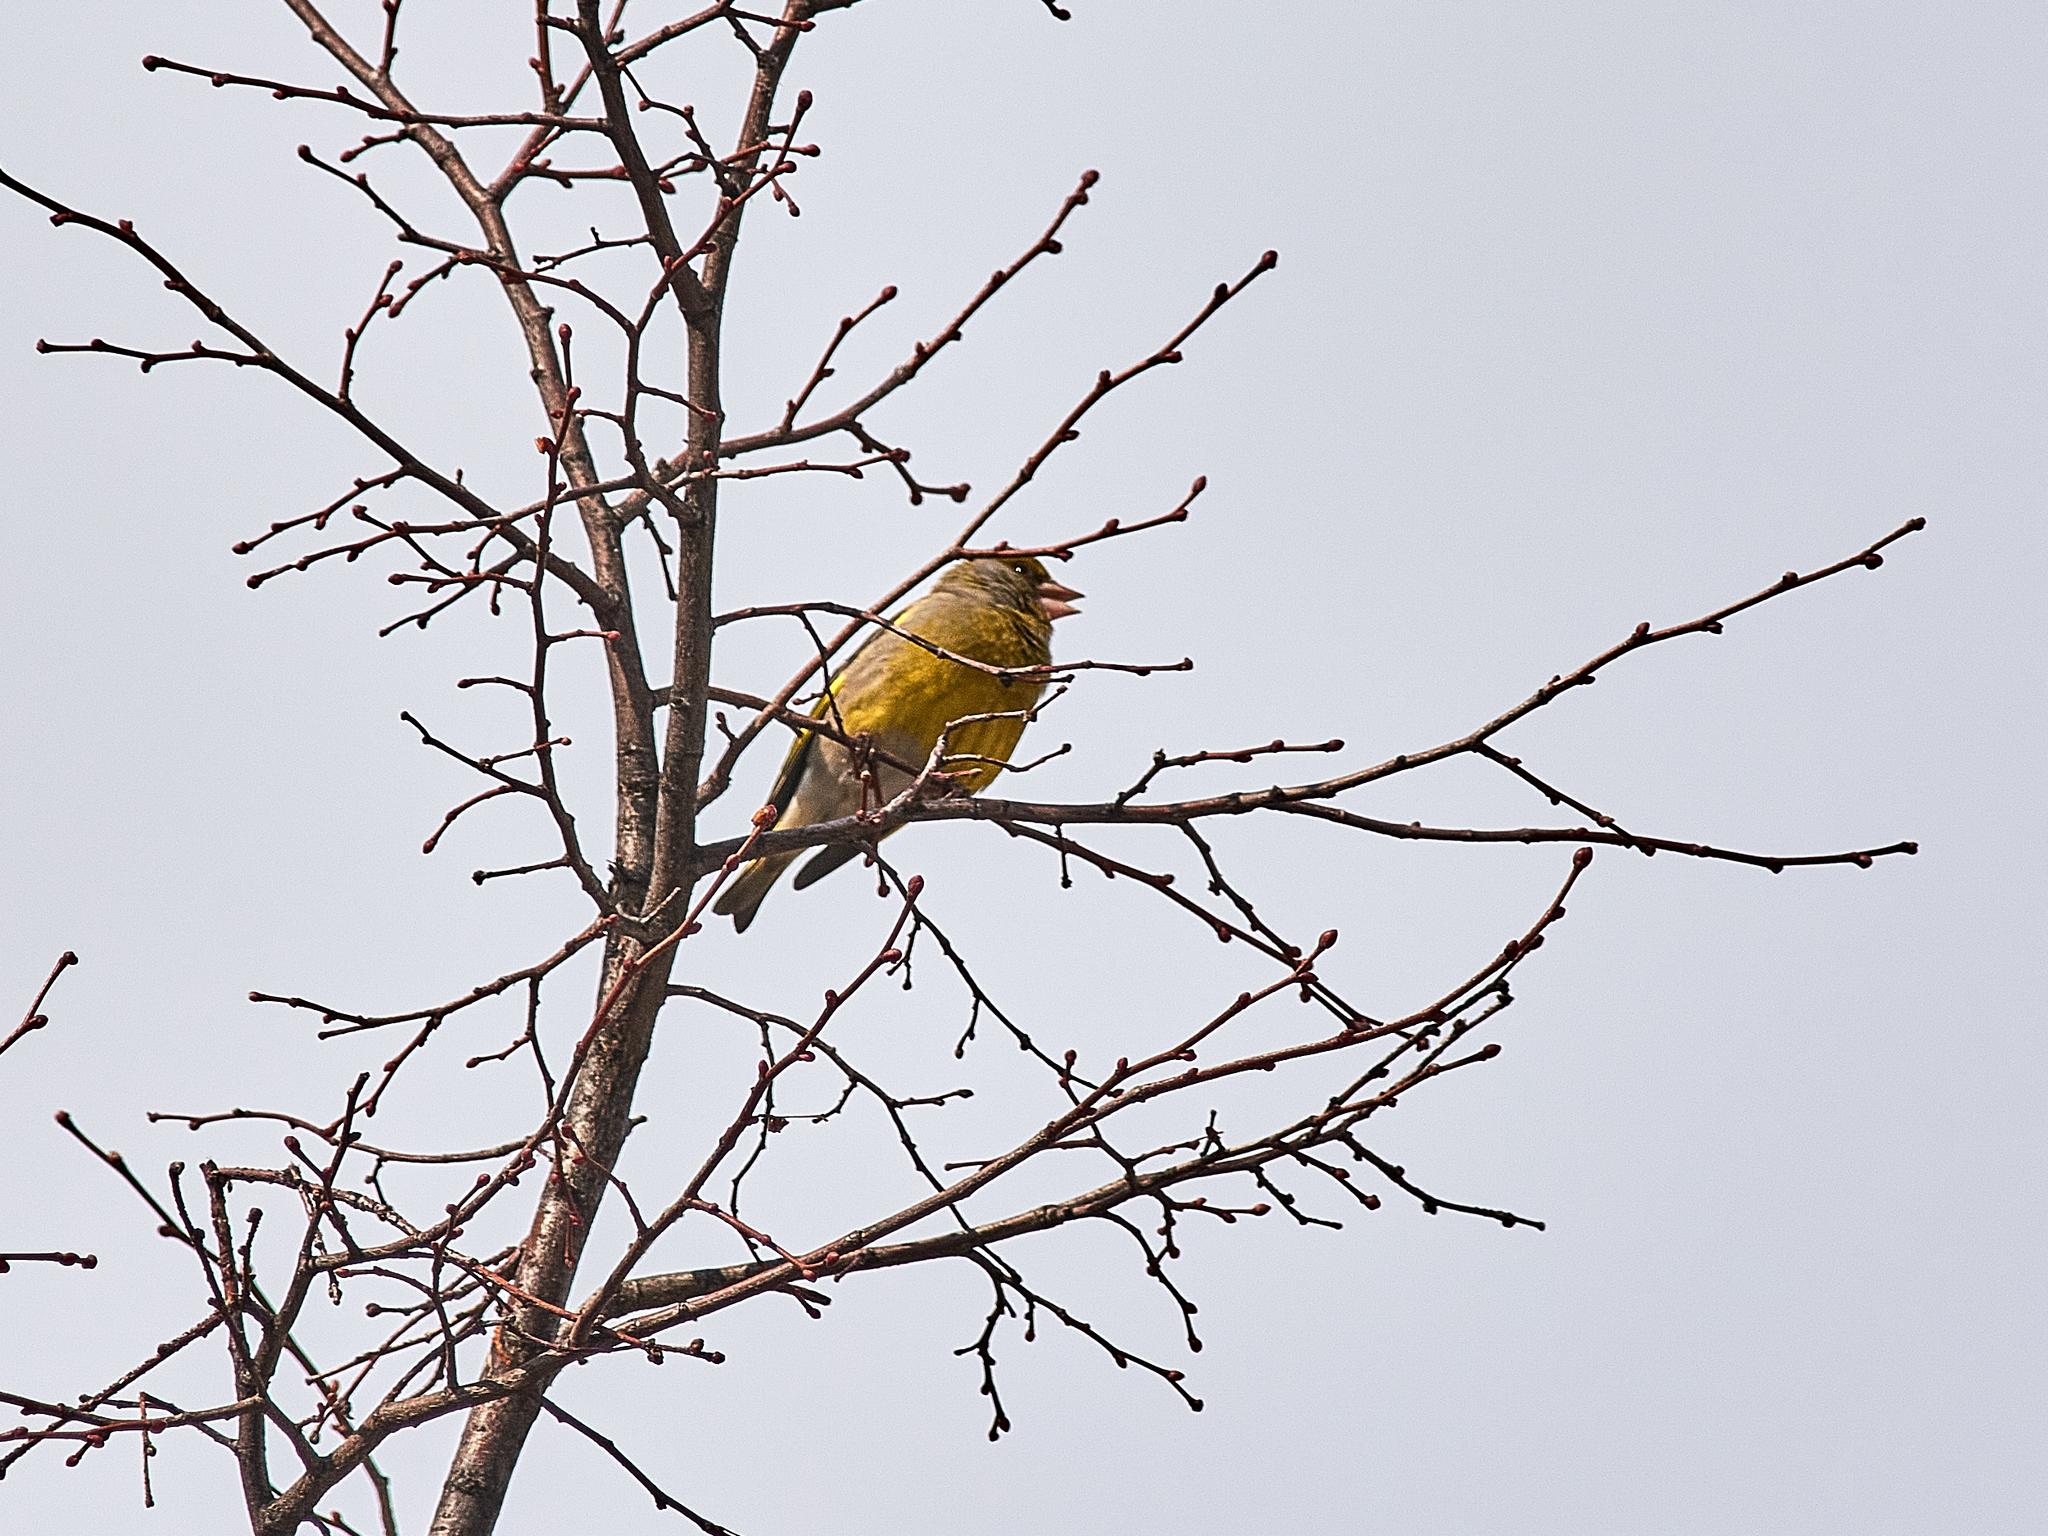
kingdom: Plantae
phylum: Tracheophyta
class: Liliopsida
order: Poales
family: Poaceae
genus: Chloris
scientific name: Chloris chloris
